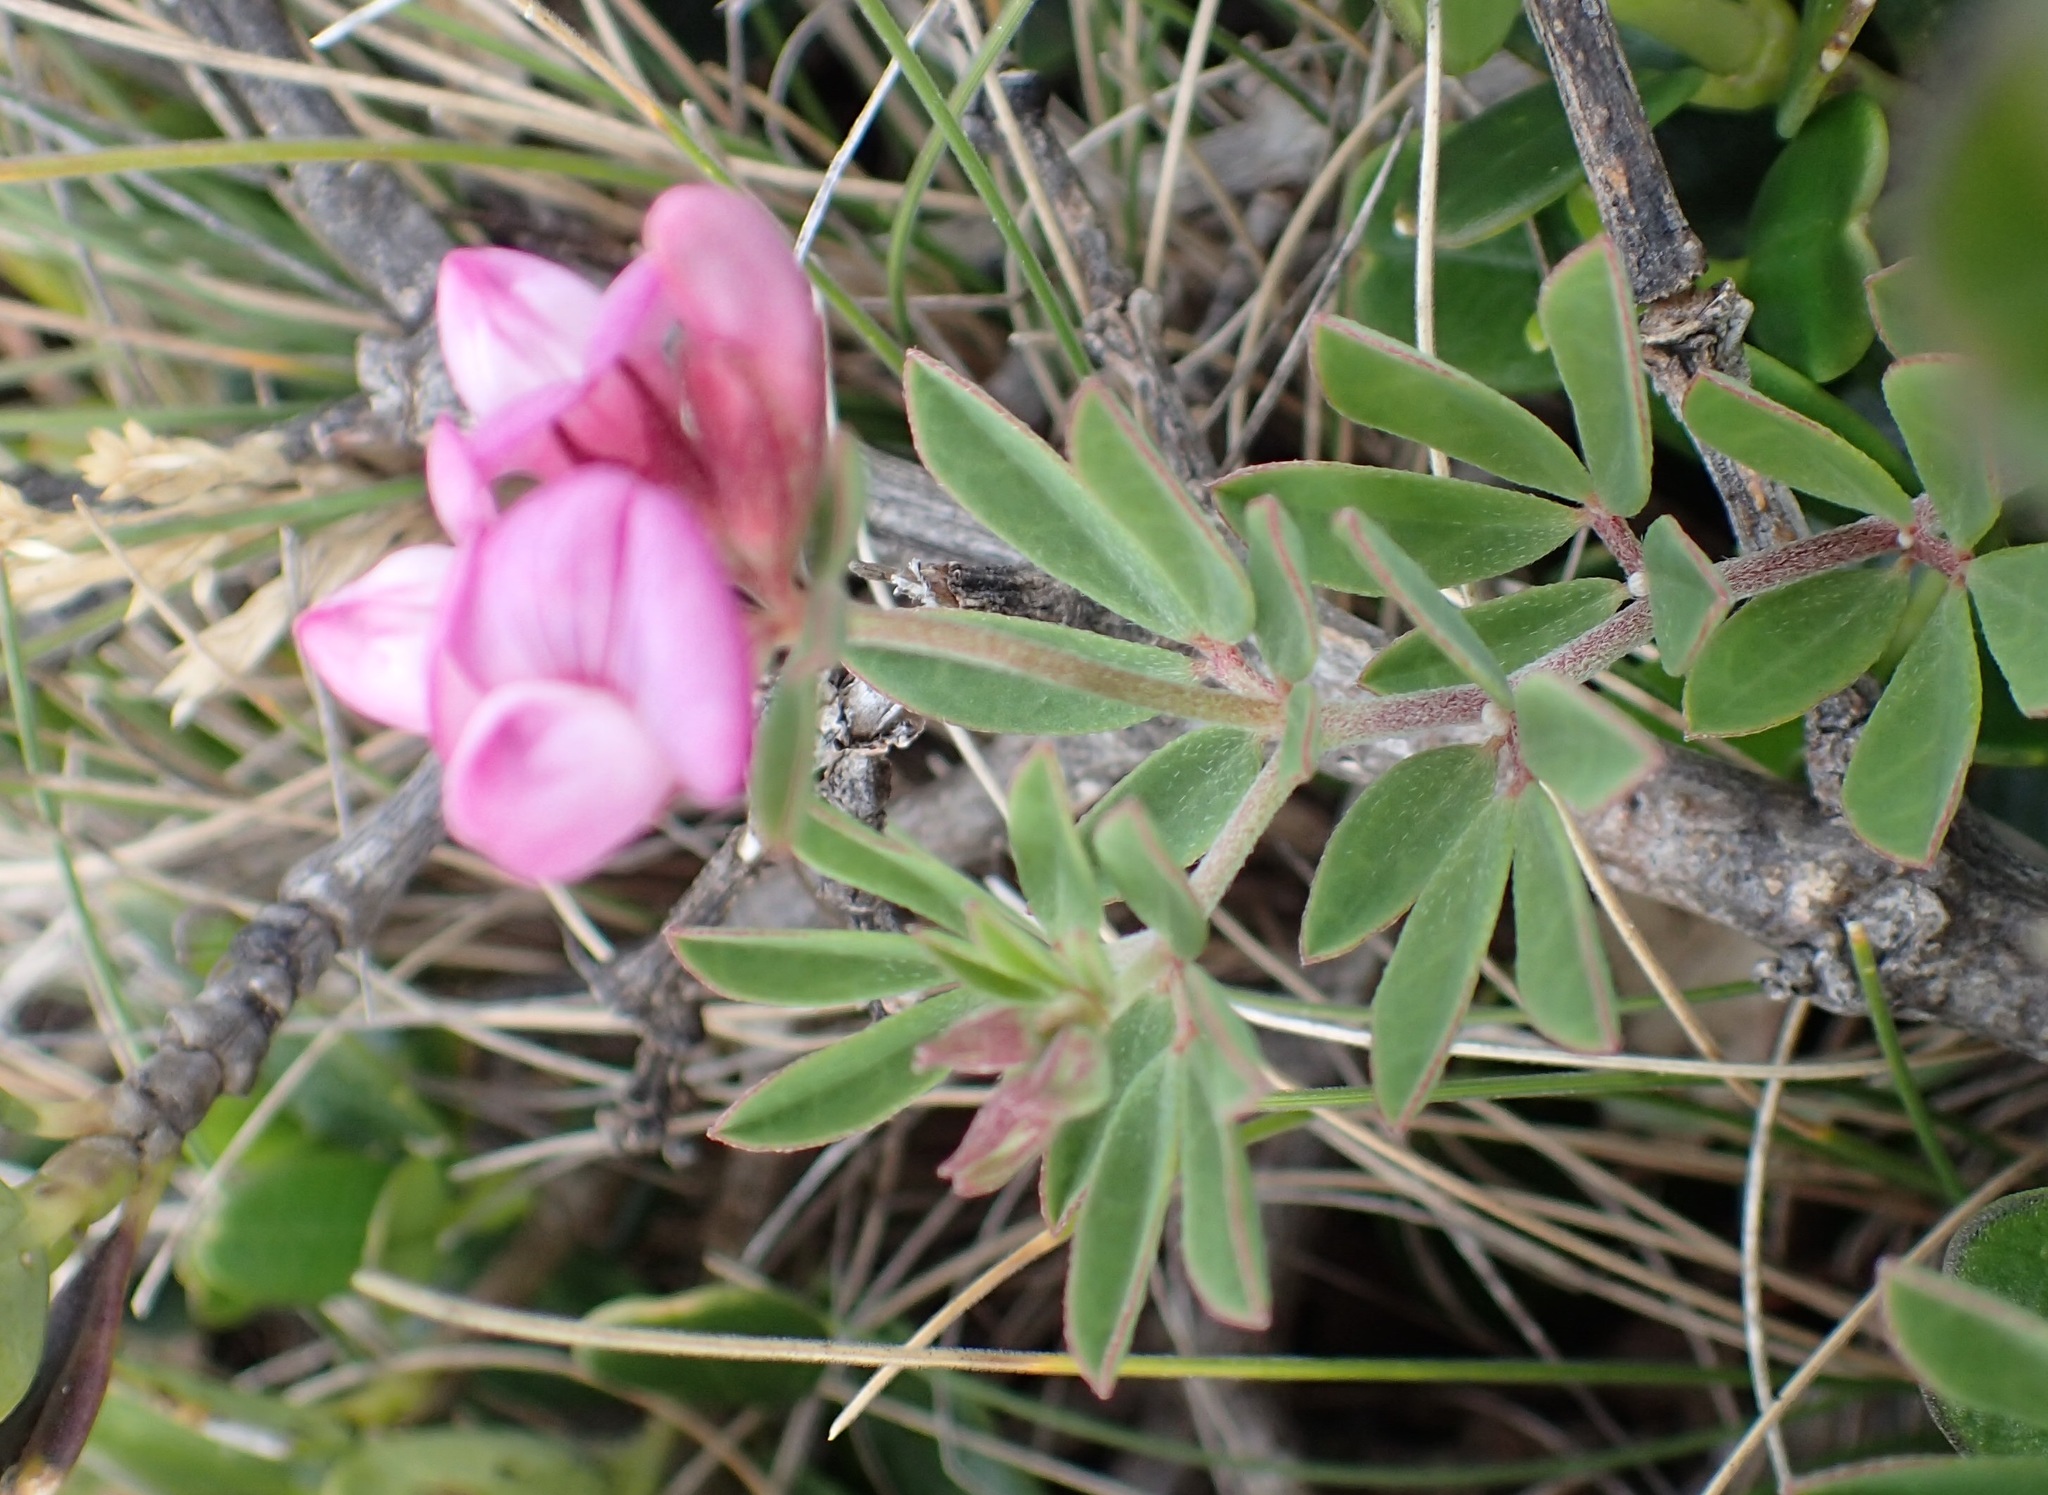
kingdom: Plantae
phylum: Tracheophyta
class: Magnoliopsida
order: Fabales
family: Fabaceae
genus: Lotus
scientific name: Lotus australis
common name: Australian trefoil
